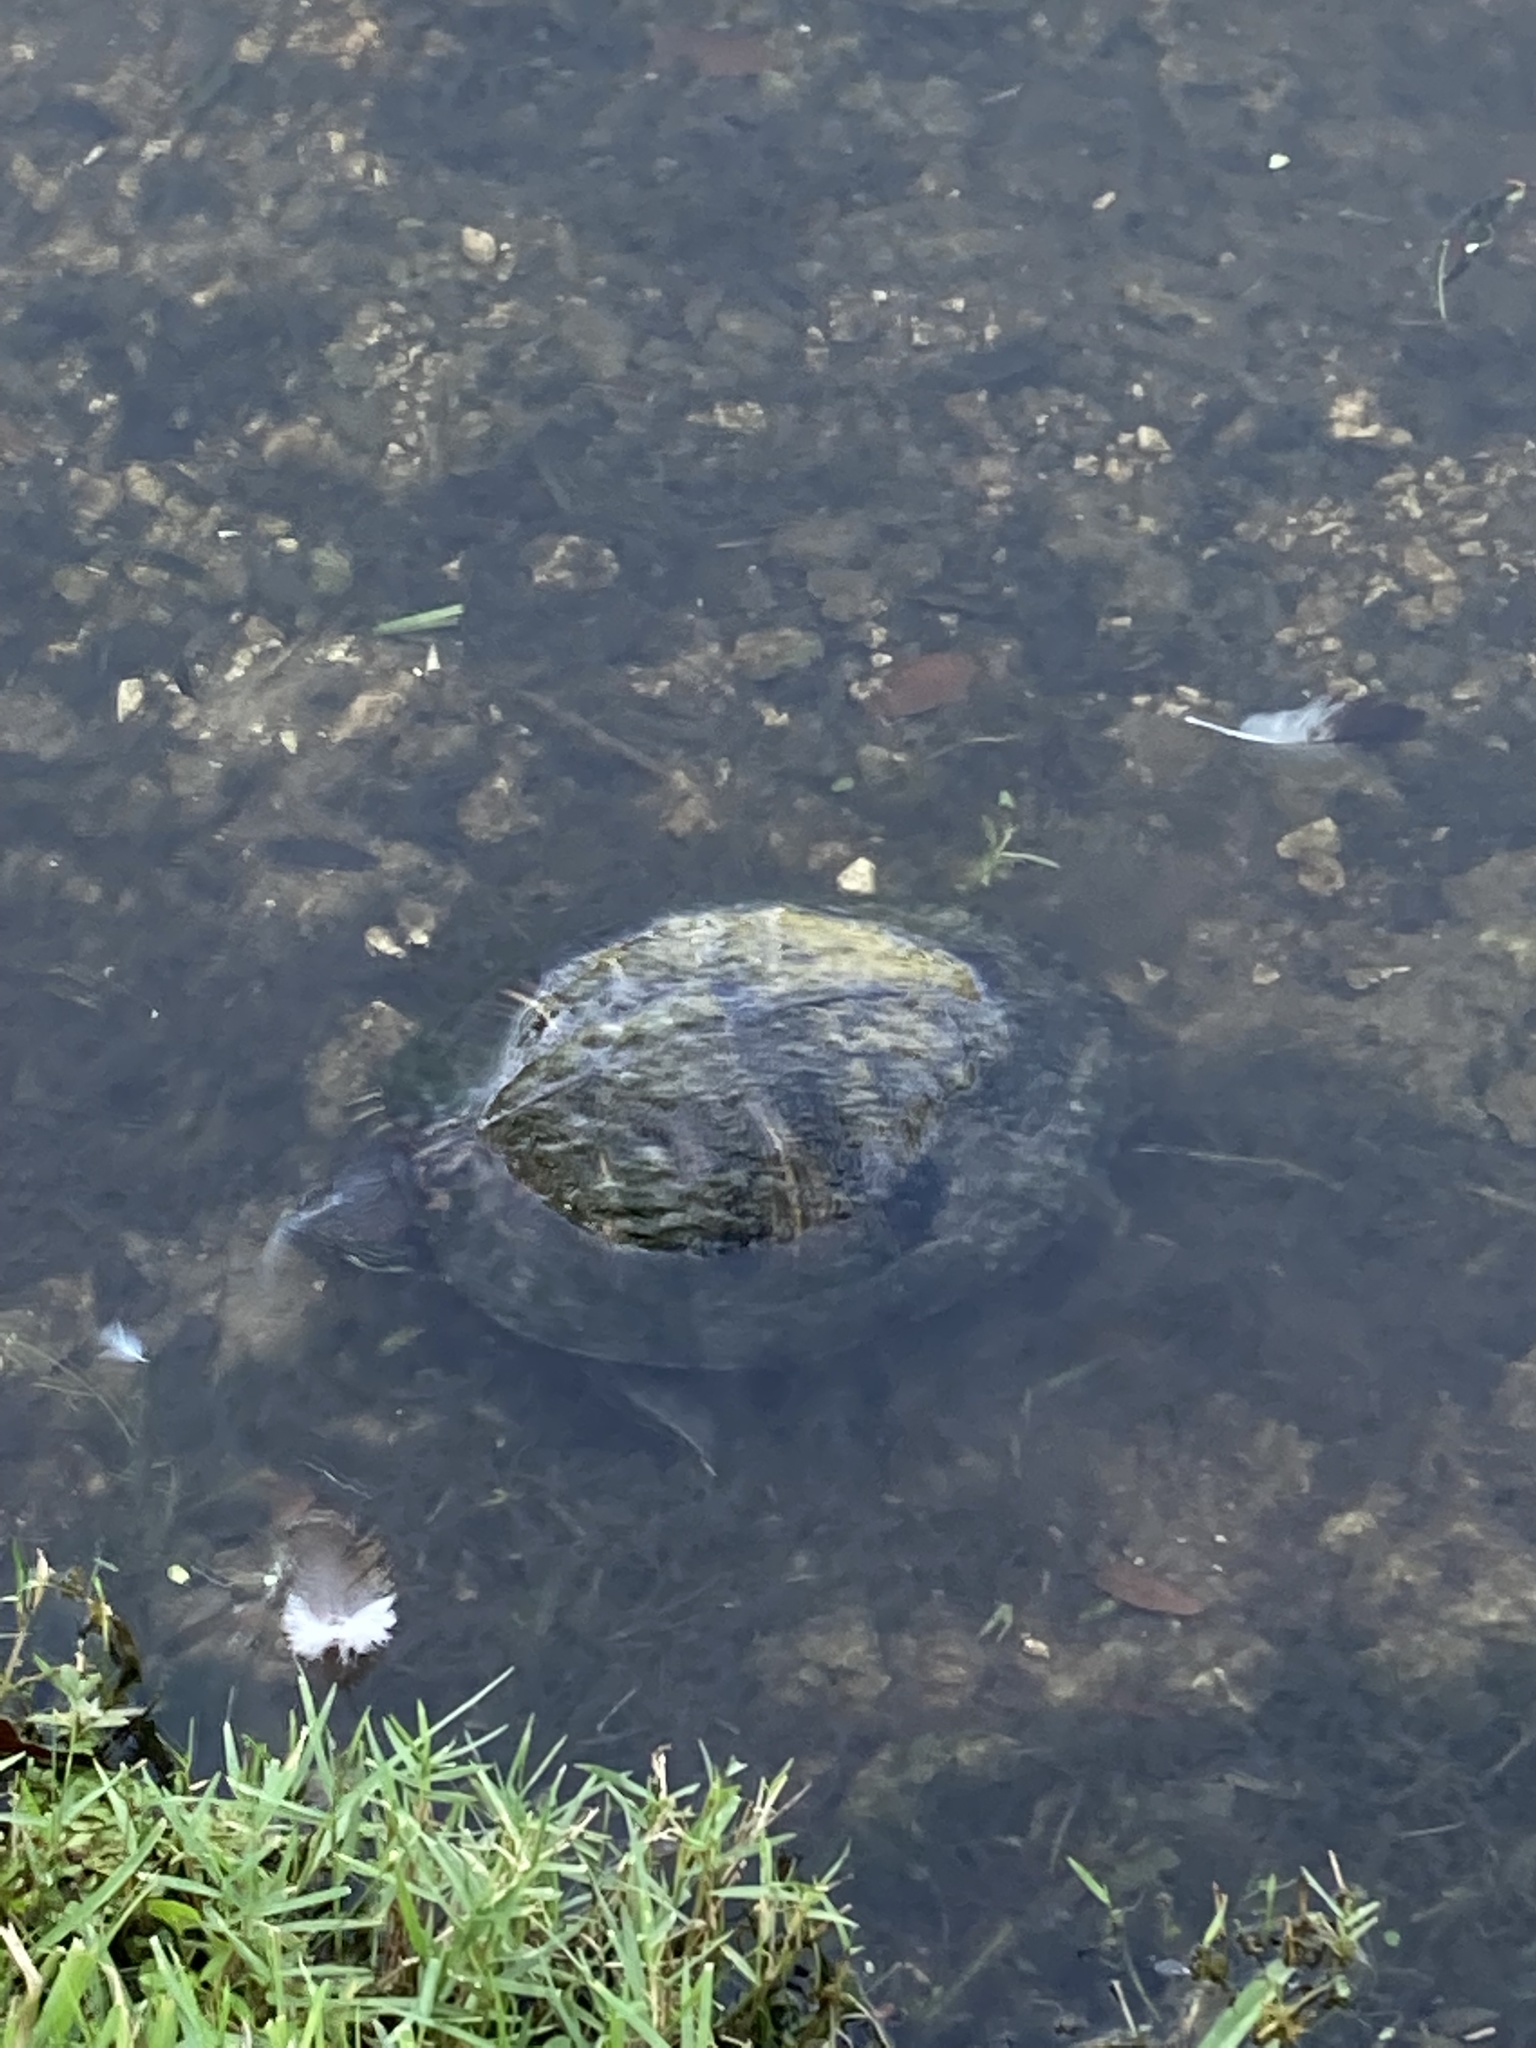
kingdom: Animalia
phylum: Chordata
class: Testudines
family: Emydidae
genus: Trachemys
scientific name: Trachemys scripta
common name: Slider
